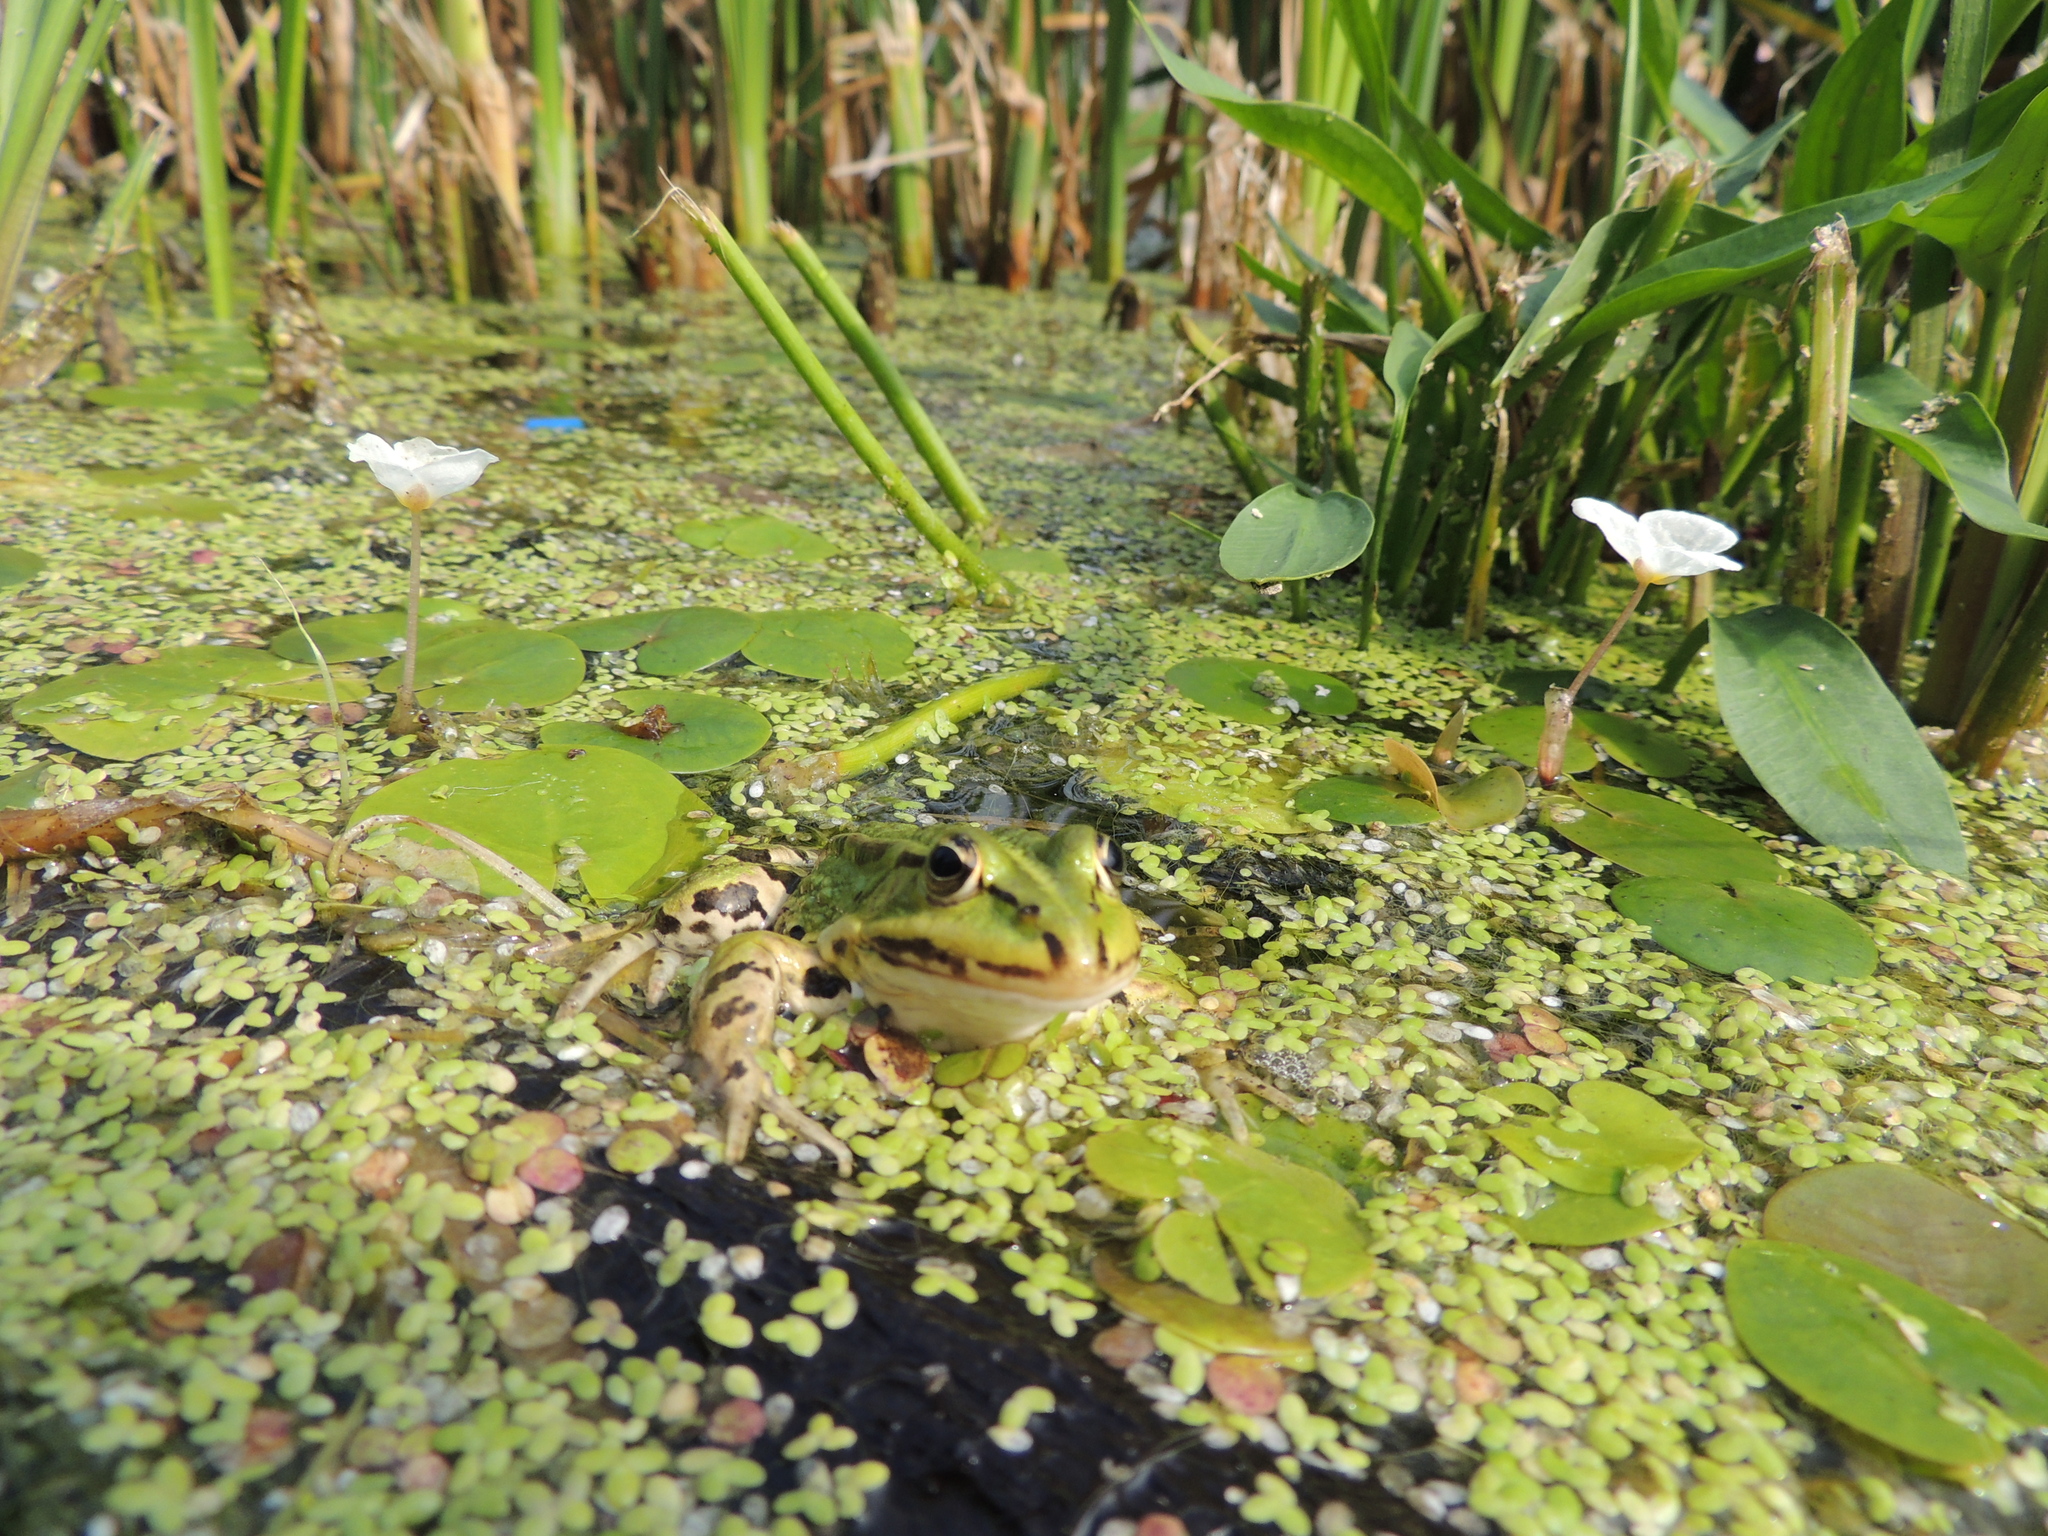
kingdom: Animalia
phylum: Chordata
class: Amphibia
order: Anura
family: Ranidae
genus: Pelophylax
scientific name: Pelophylax lessonae
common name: Pool frog
